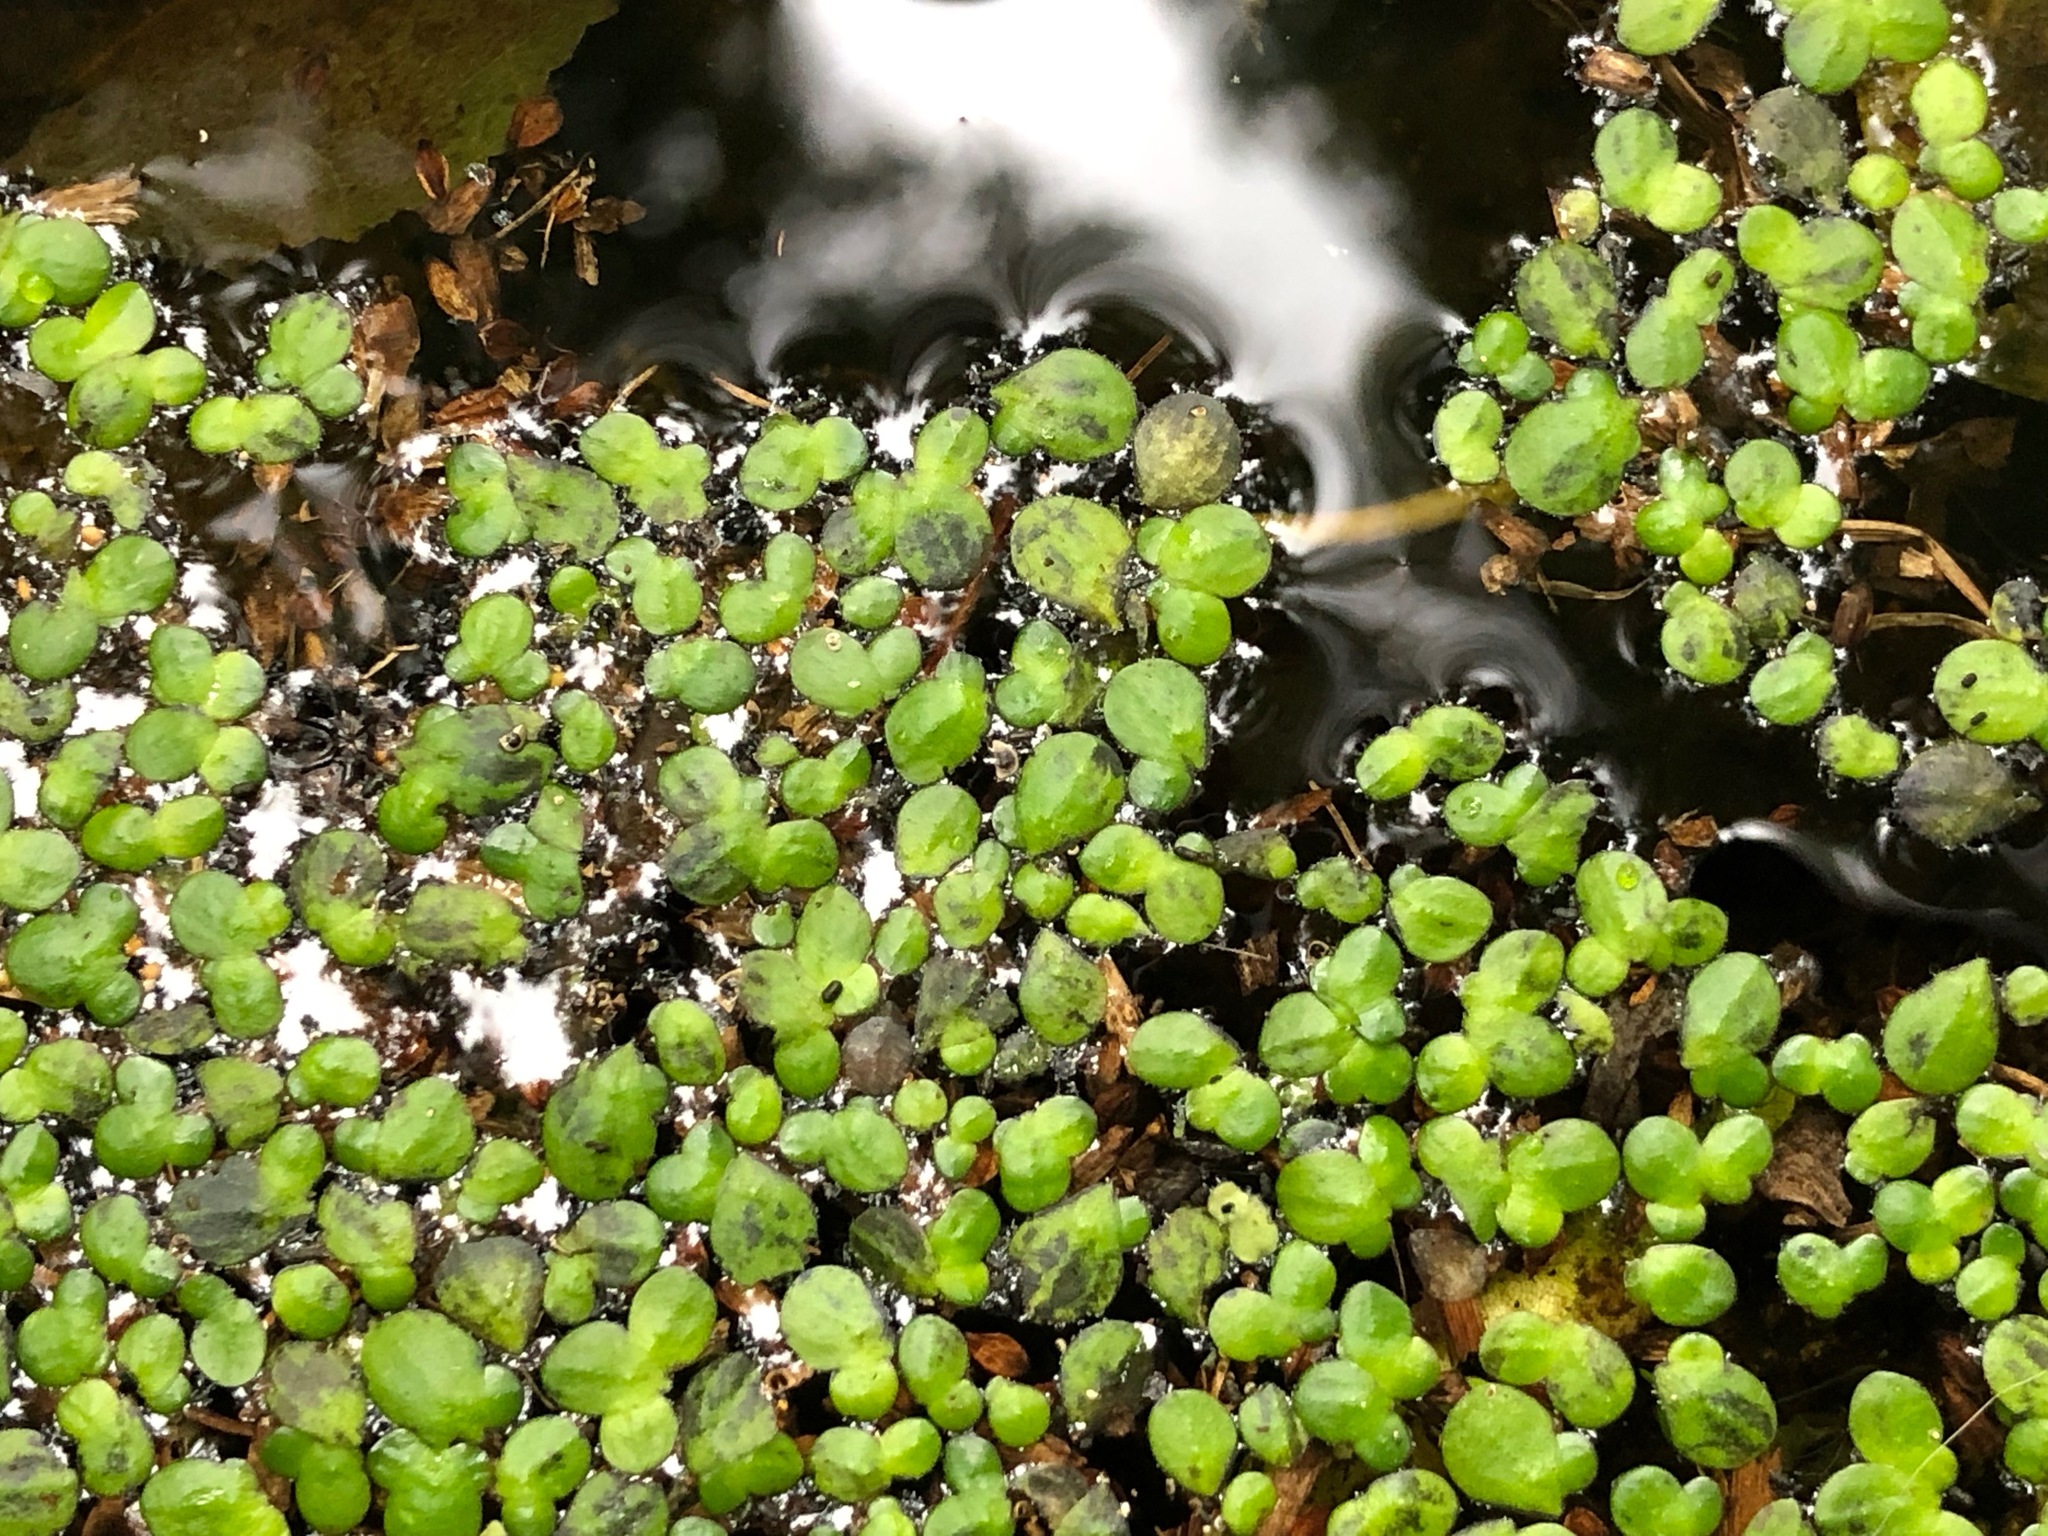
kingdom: Plantae
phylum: Tracheophyta
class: Liliopsida
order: Alismatales
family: Araceae
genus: Lemna
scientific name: Lemna minor
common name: Common duckweed
